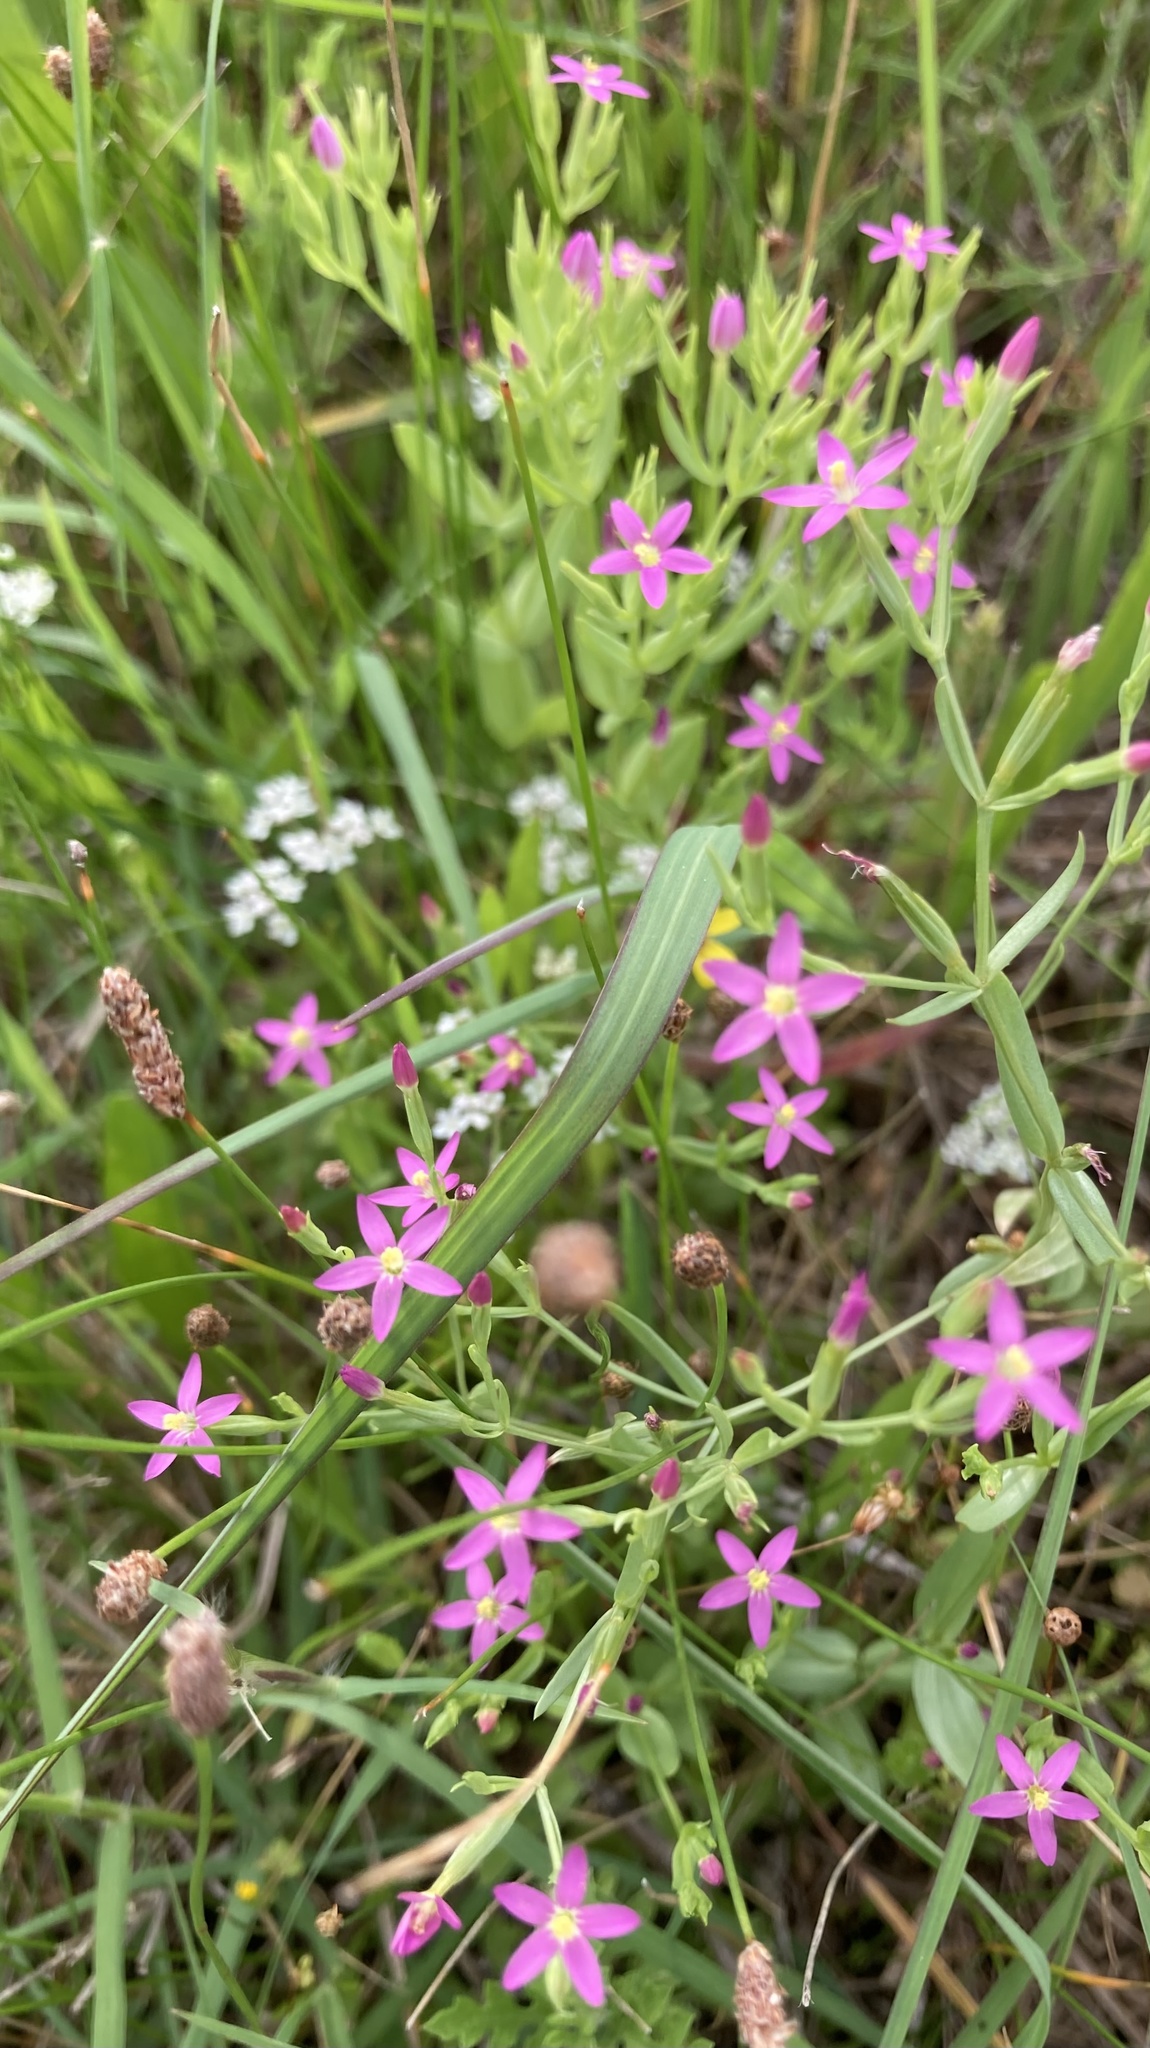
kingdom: Plantae
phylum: Tracheophyta
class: Magnoliopsida
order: Gentianales
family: Gentianaceae
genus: Centaurium
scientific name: Centaurium pulchellum
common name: Lesser centaury
